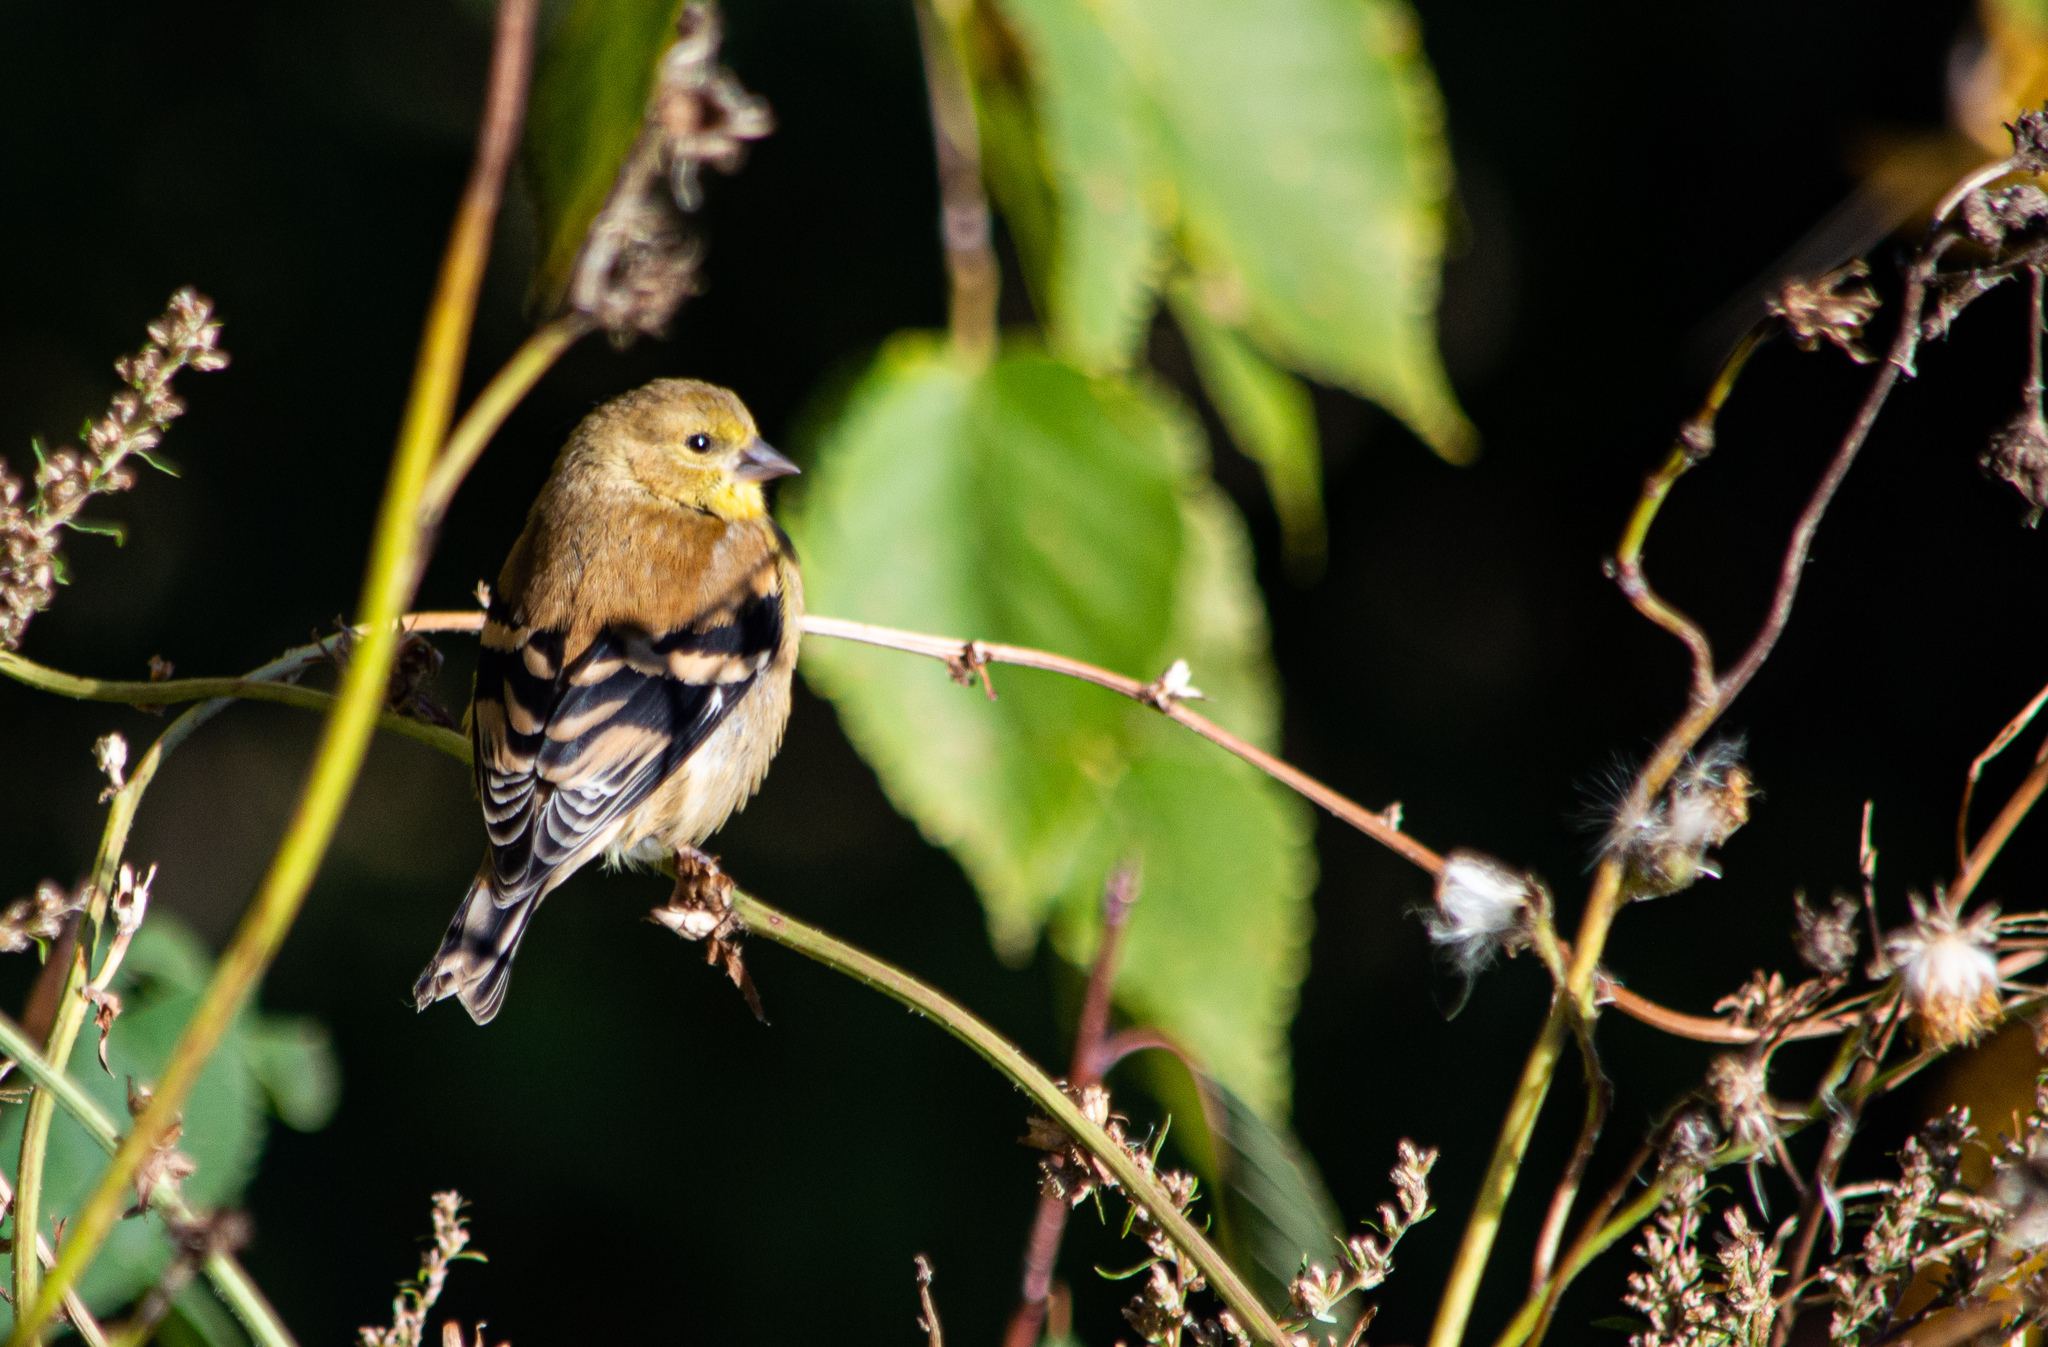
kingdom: Animalia
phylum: Chordata
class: Aves
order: Passeriformes
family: Fringillidae
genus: Spinus
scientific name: Spinus tristis
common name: American goldfinch
